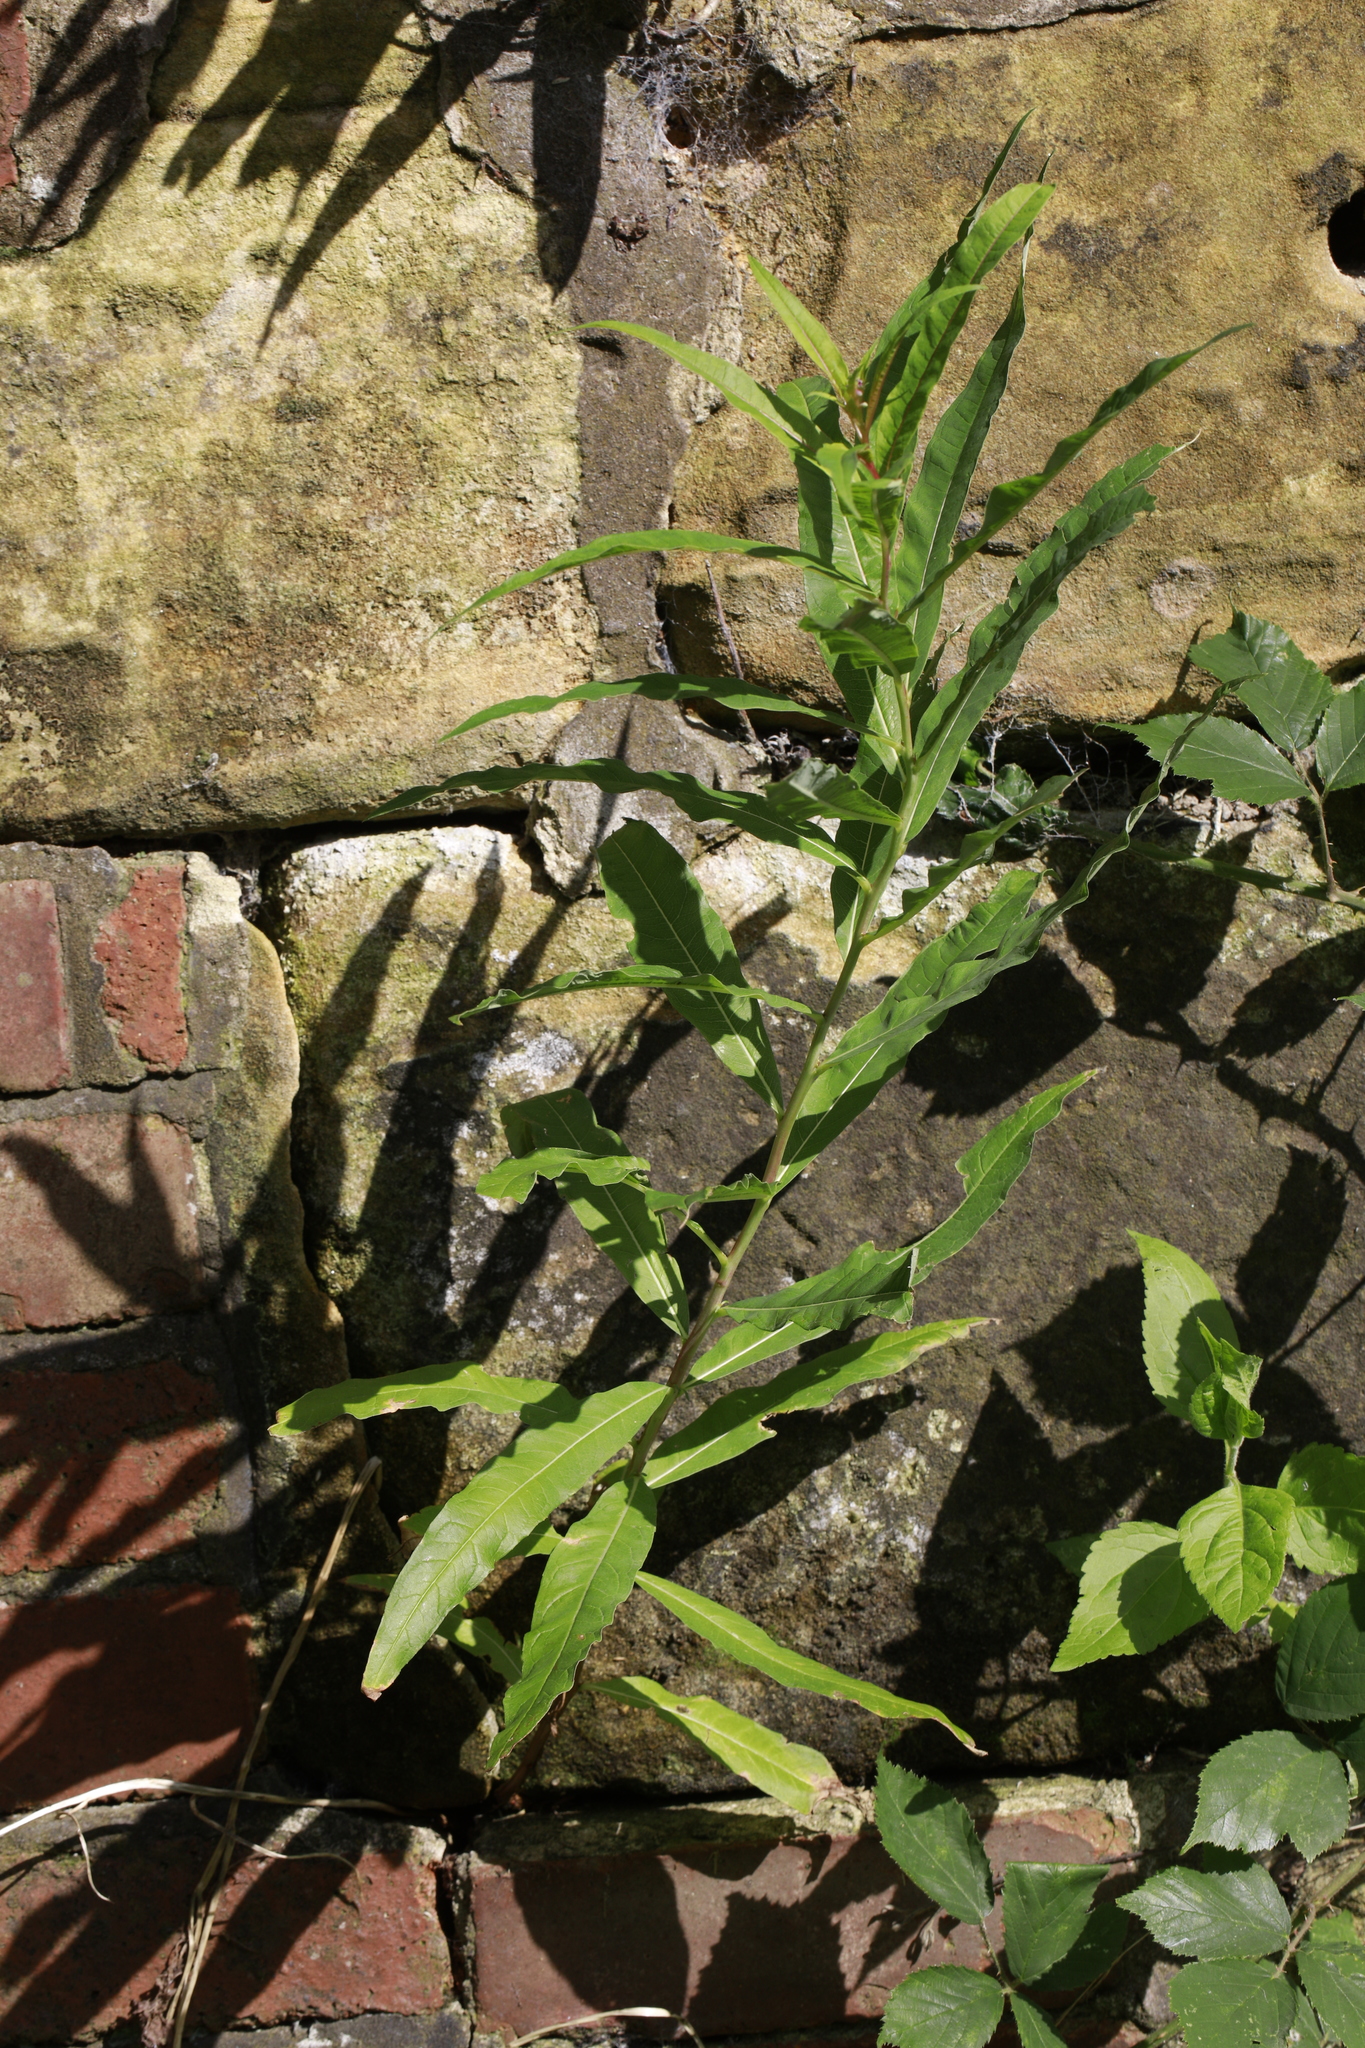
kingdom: Plantae
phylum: Tracheophyta
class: Magnoliopsida
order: Myrtales
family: Onagraceae
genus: Chamaenerion
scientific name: Chamaenerion angustifolium
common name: Fireweed
